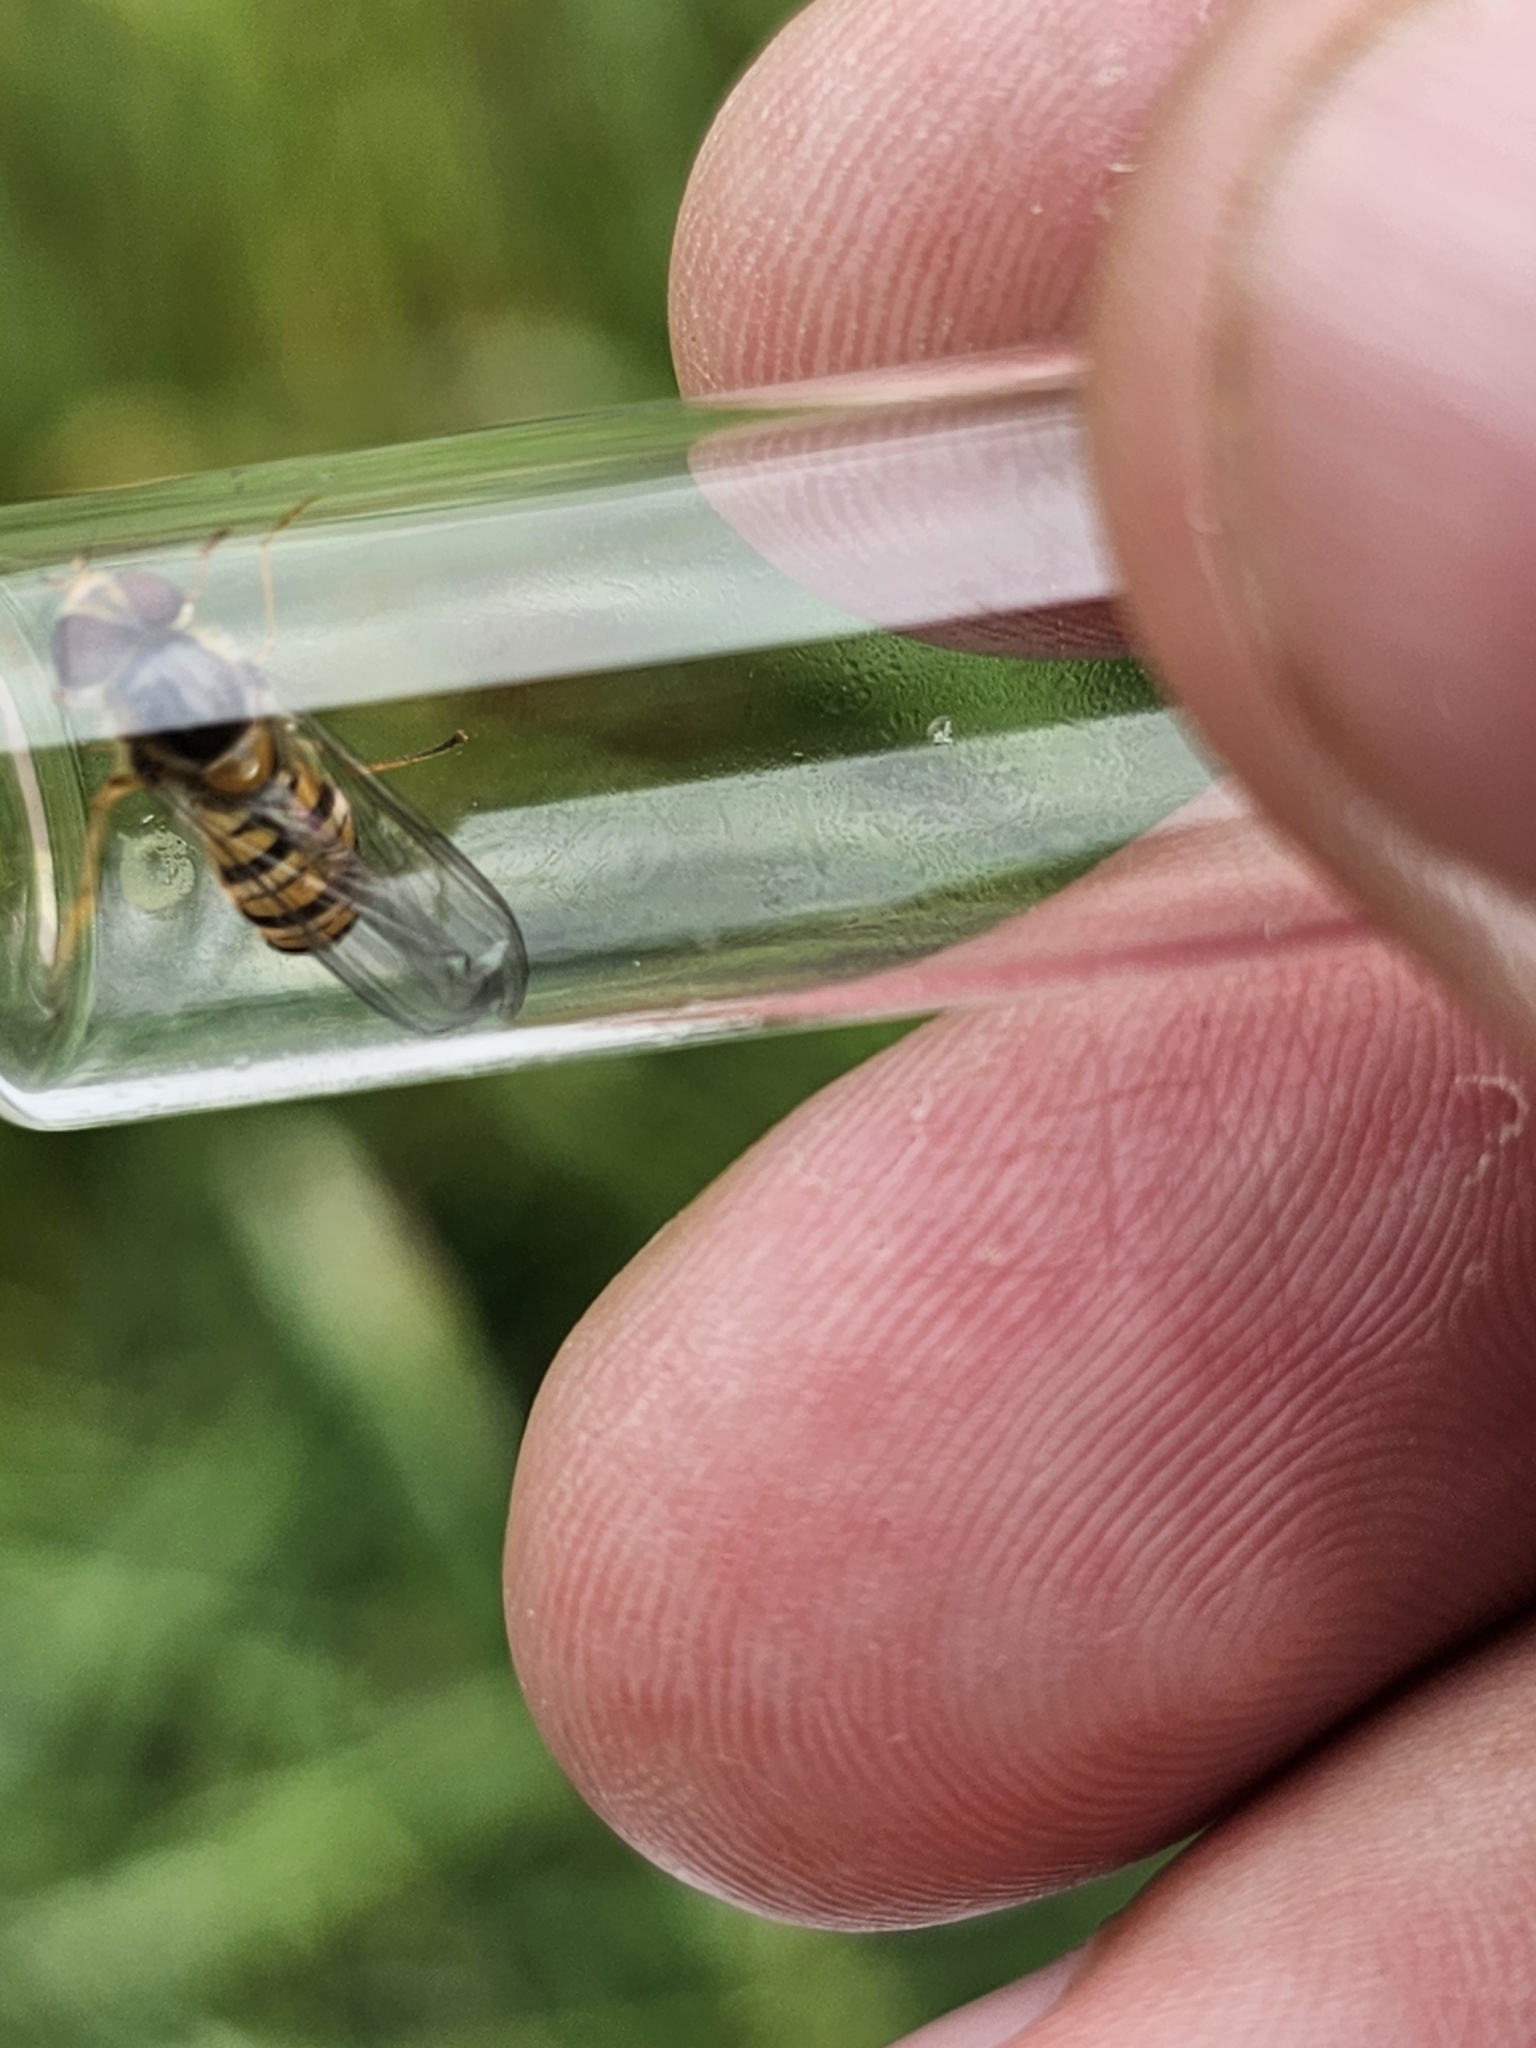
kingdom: Animalia
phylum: Arthropoda
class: Insecta
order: Diptera
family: Syrphidae
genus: Episyrphus
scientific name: Episyrphus balteatus
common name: Marmalade hoverfly
